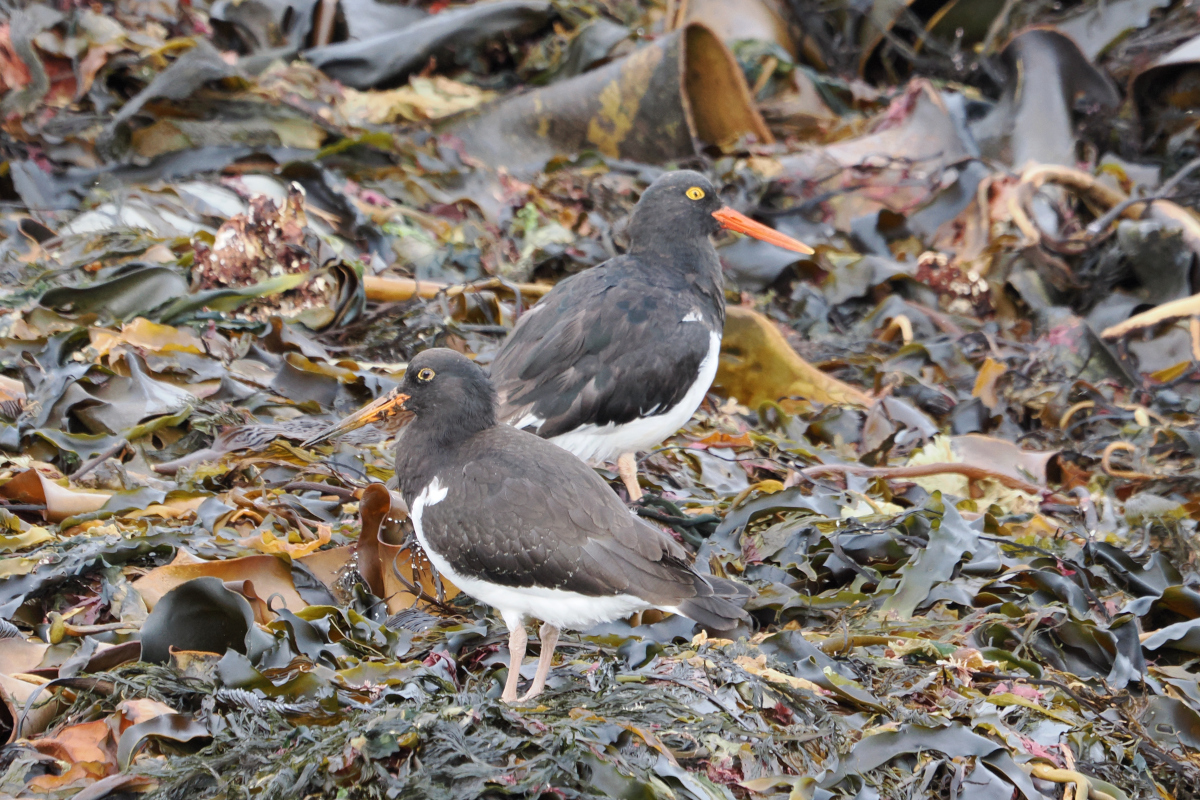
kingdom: Animalia
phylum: Chordata
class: Aves
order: Charadriiformes
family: Haematopodidae
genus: Haematopus
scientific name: Haematopus leucopodus
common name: Magellanic oystercatcher
